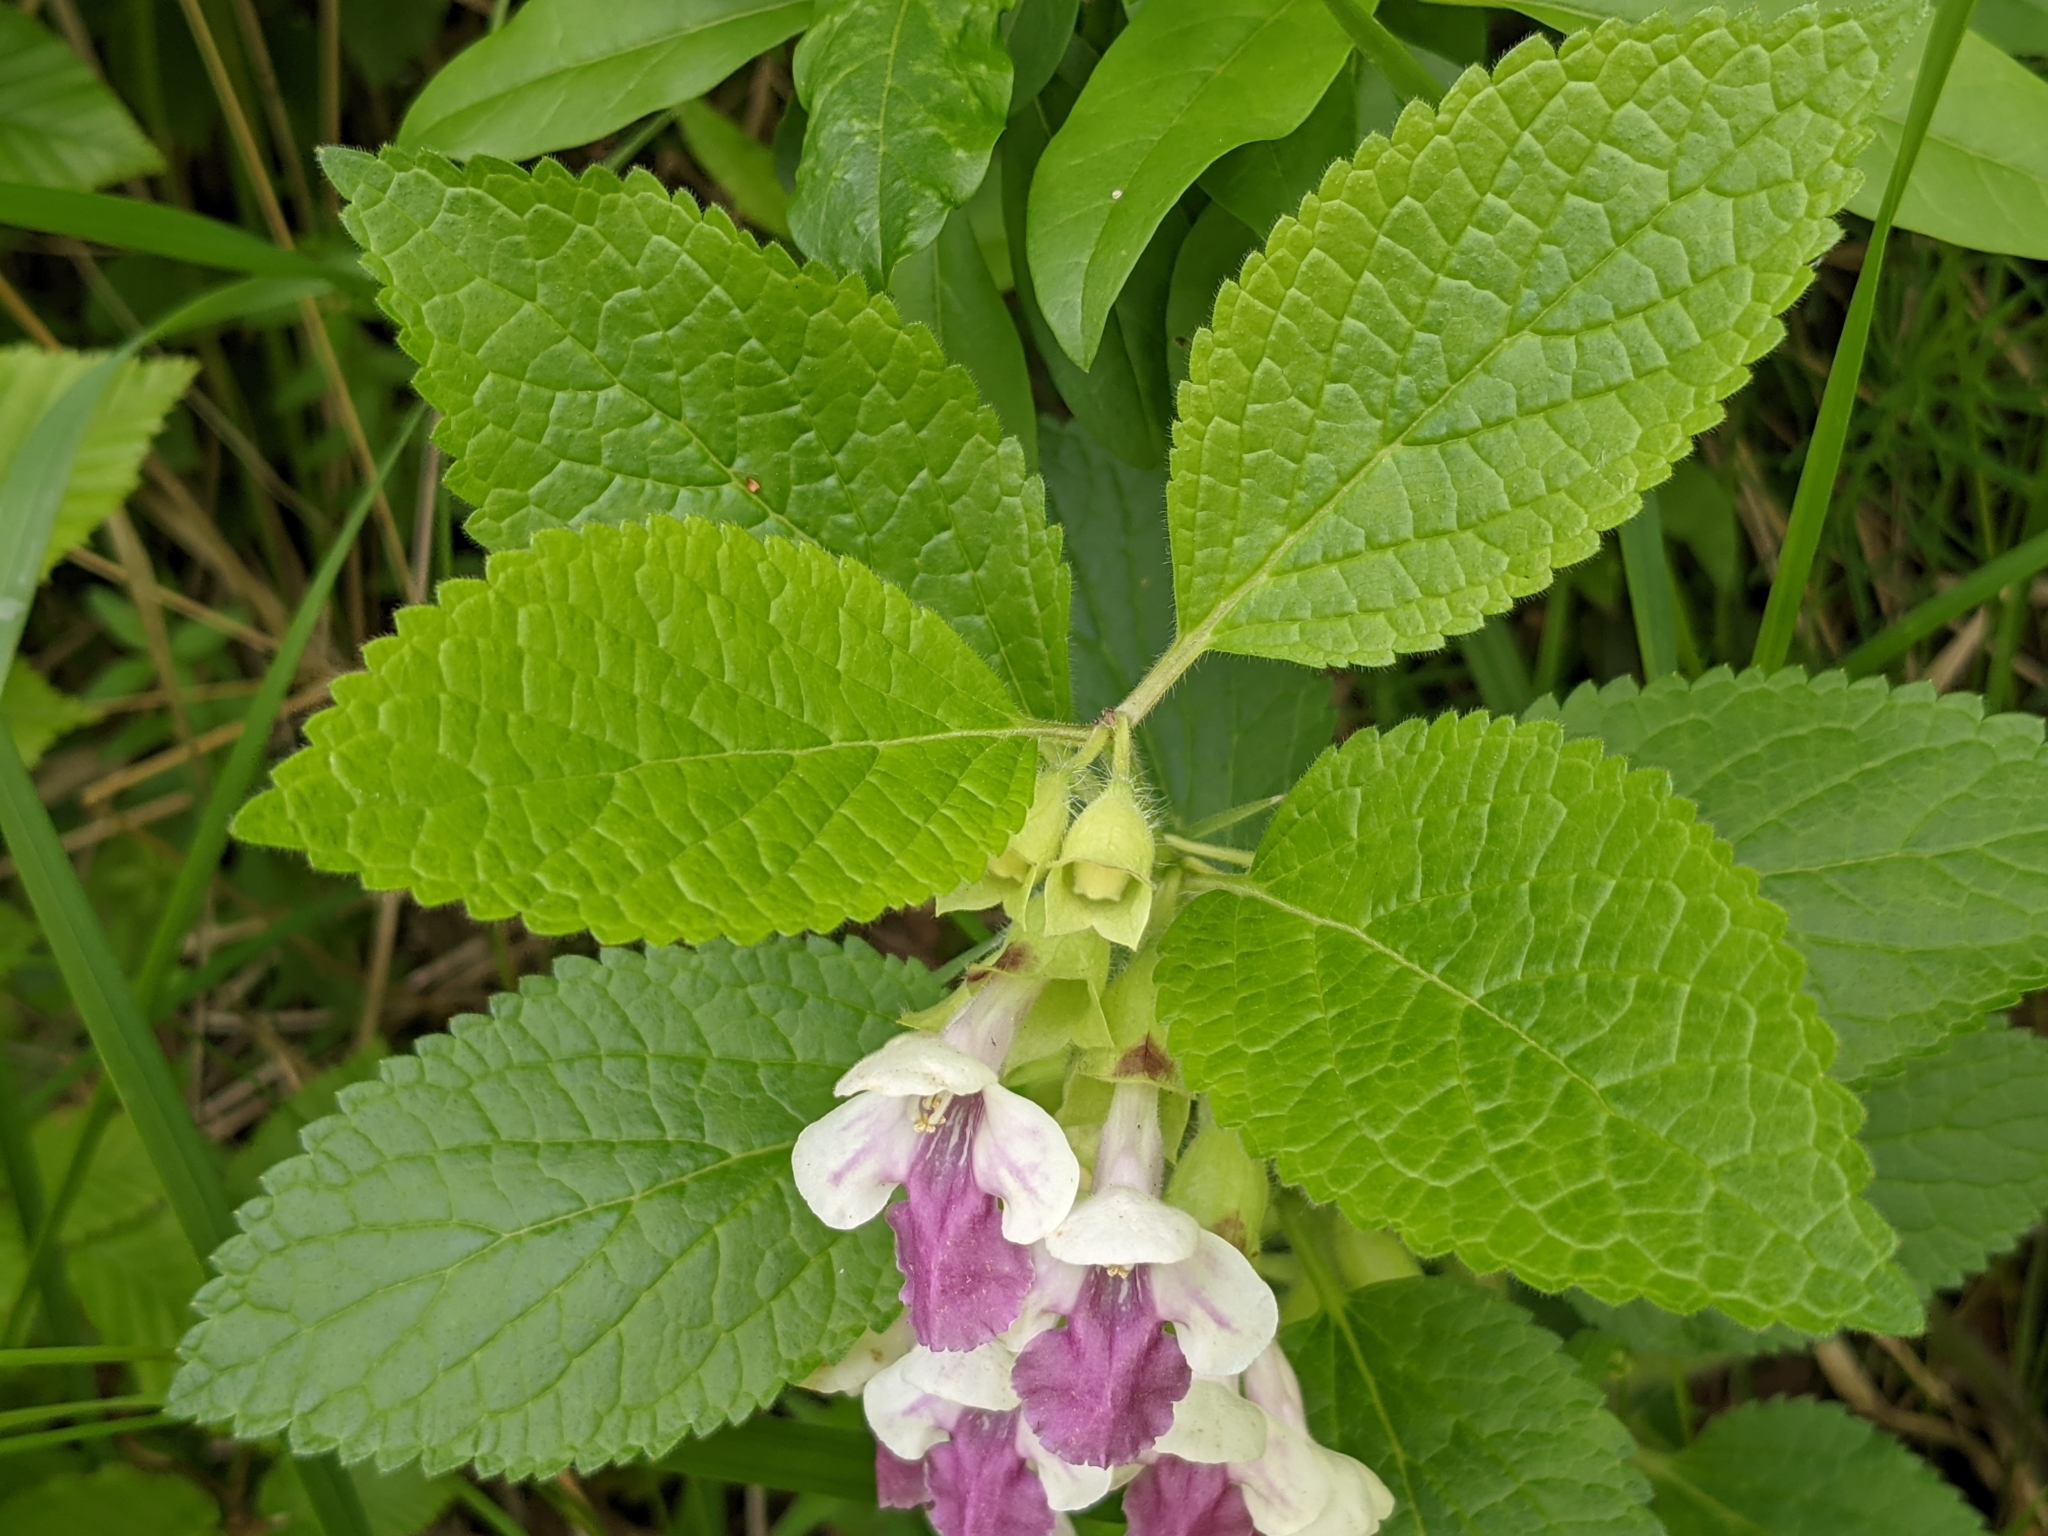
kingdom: Plantae
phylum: Tracheophyta
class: Magnoliopsida
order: Lamiales
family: Lamiaceae
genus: Melittis
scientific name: Melittis melissophyllum
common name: Bastard balm
